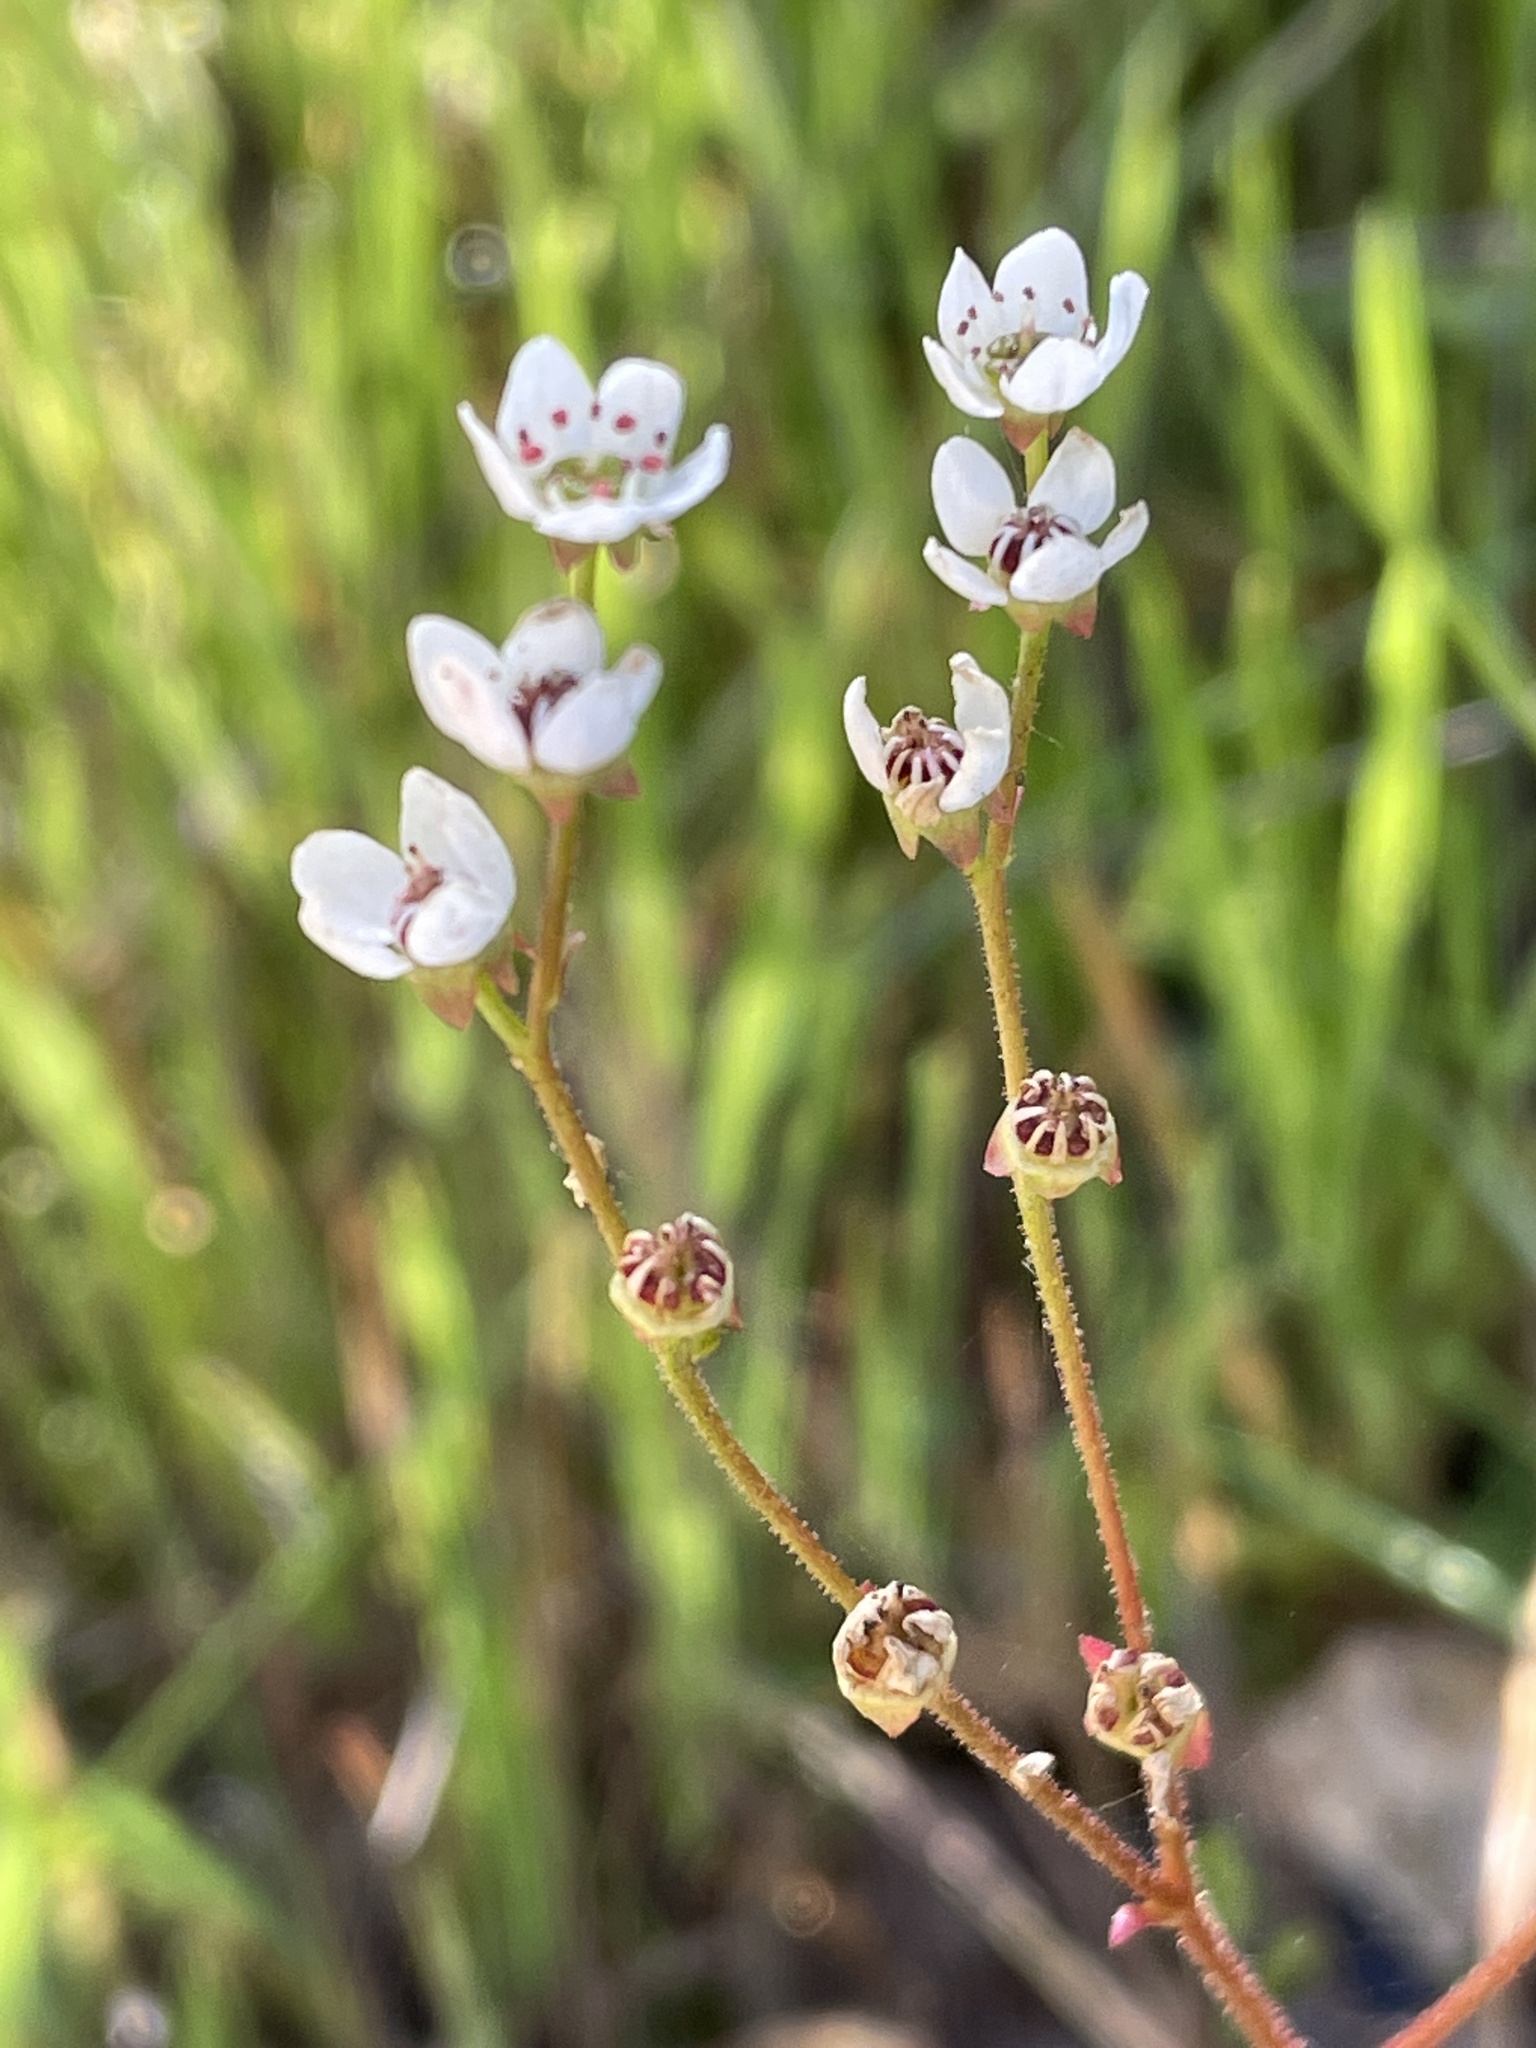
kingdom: Plantae
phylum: Tracheophyta
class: Magnoliopsida
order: Saxifragales
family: Saxifragaceae
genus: Micranthes
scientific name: Micranthes californica
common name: California saxifrage
